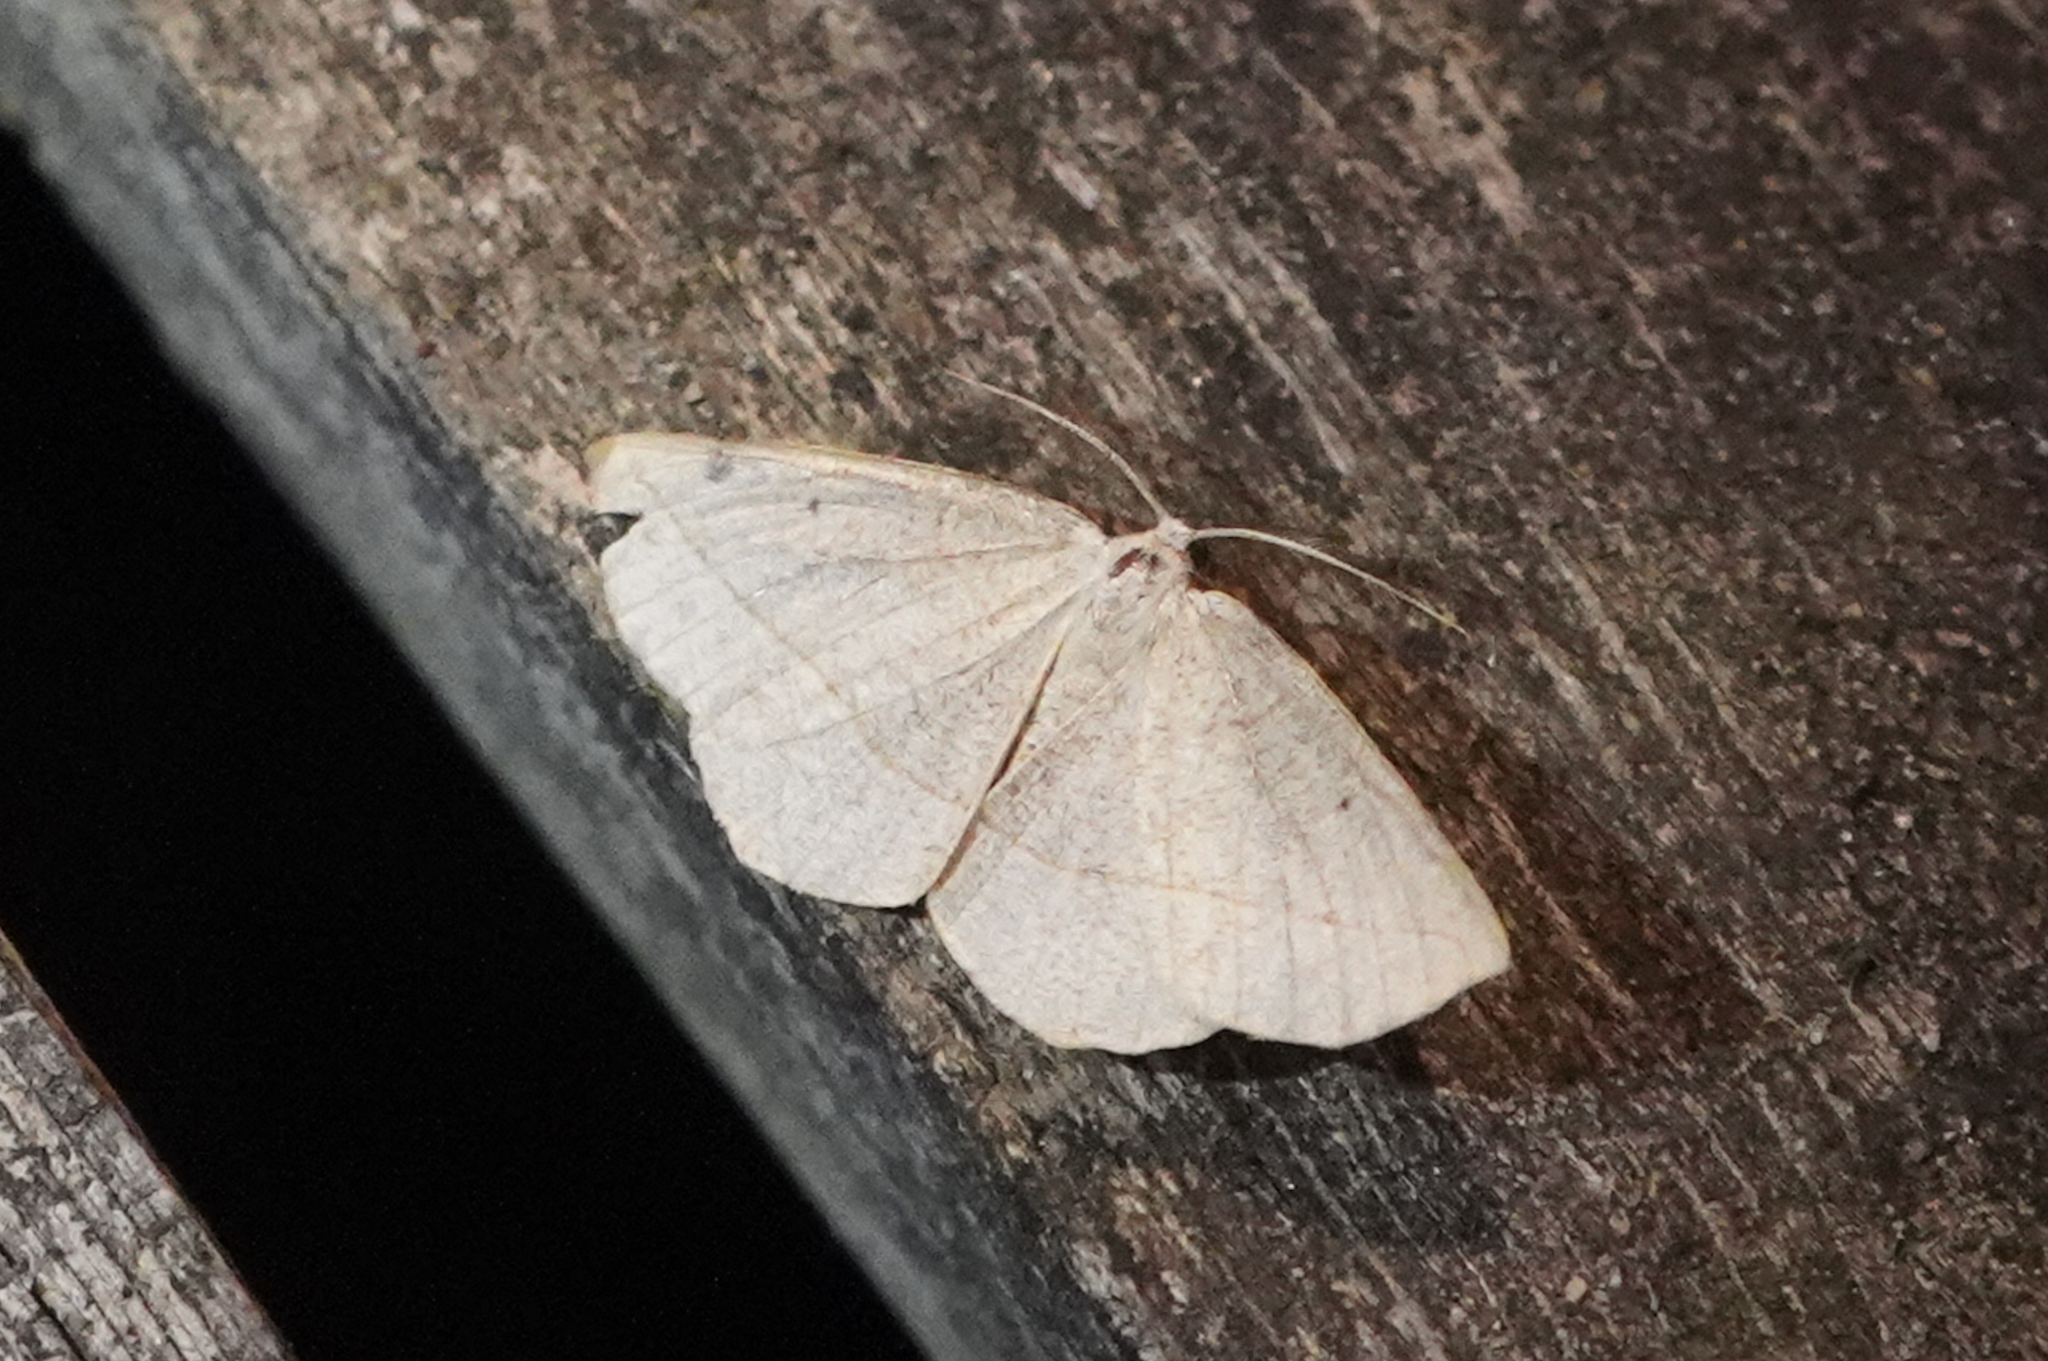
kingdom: Animalia
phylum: Arthropoda
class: Insecta
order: Lepidoptera
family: Geometridae
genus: Eusarca
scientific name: Eusarca confusaria
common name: Confused eusarca
